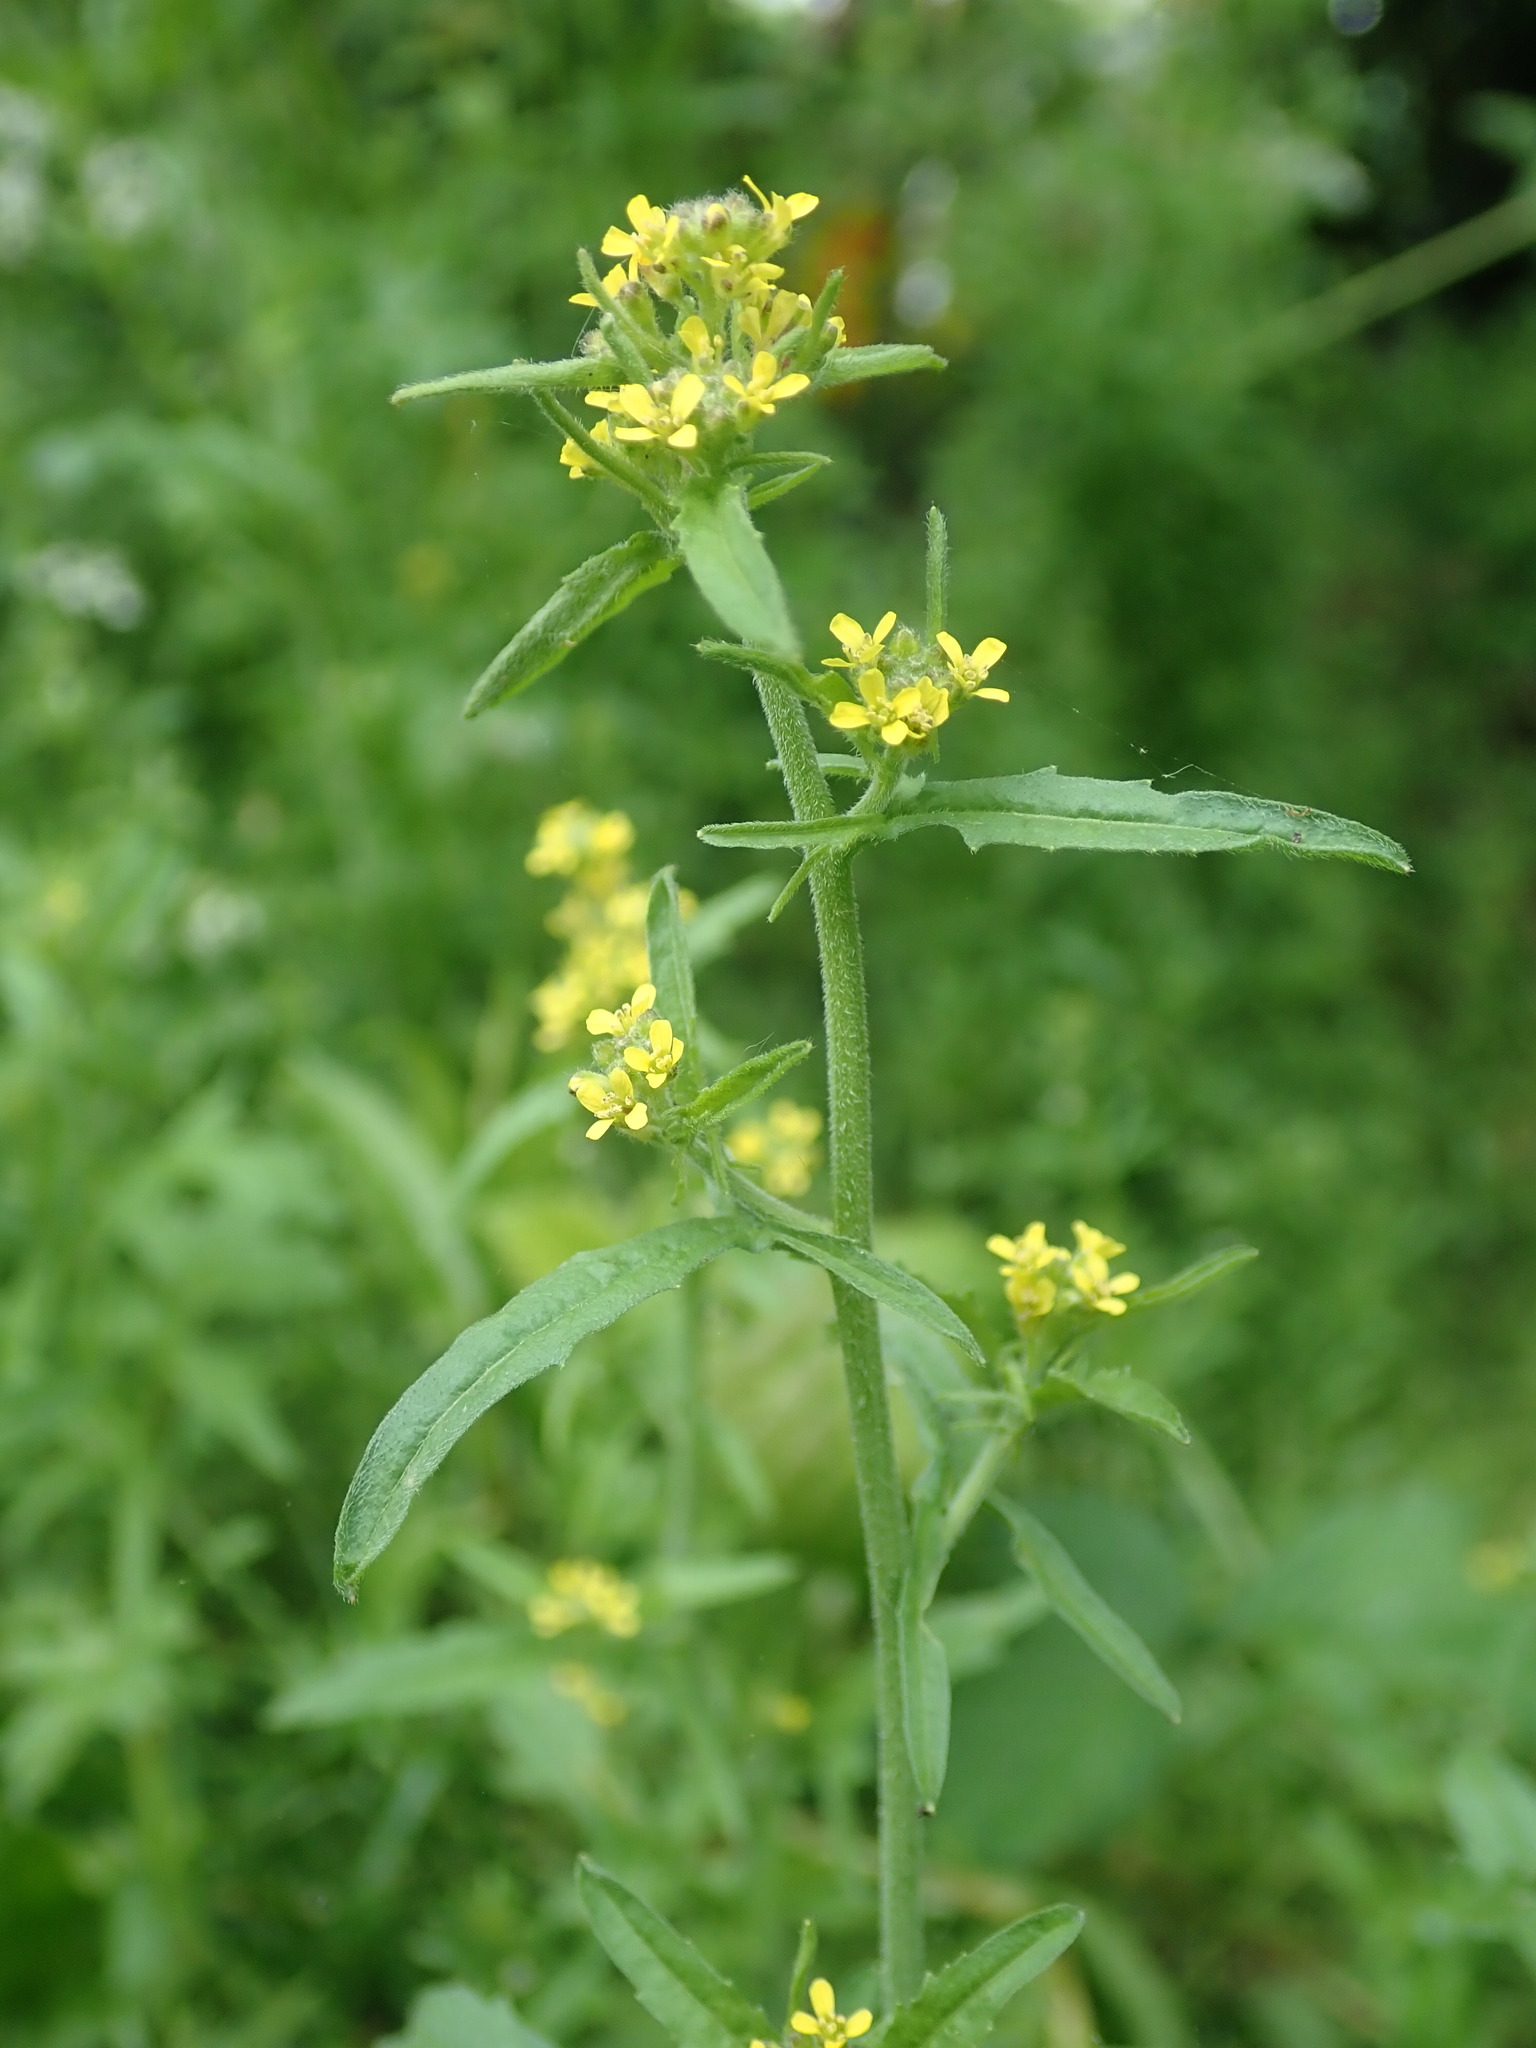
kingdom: Plantae
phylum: Tracheophyta
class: Magnoliopsida
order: Brassicales
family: Brassicaceae
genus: Sisymbrium
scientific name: Sisymbrium officinale
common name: Hedge mustard
